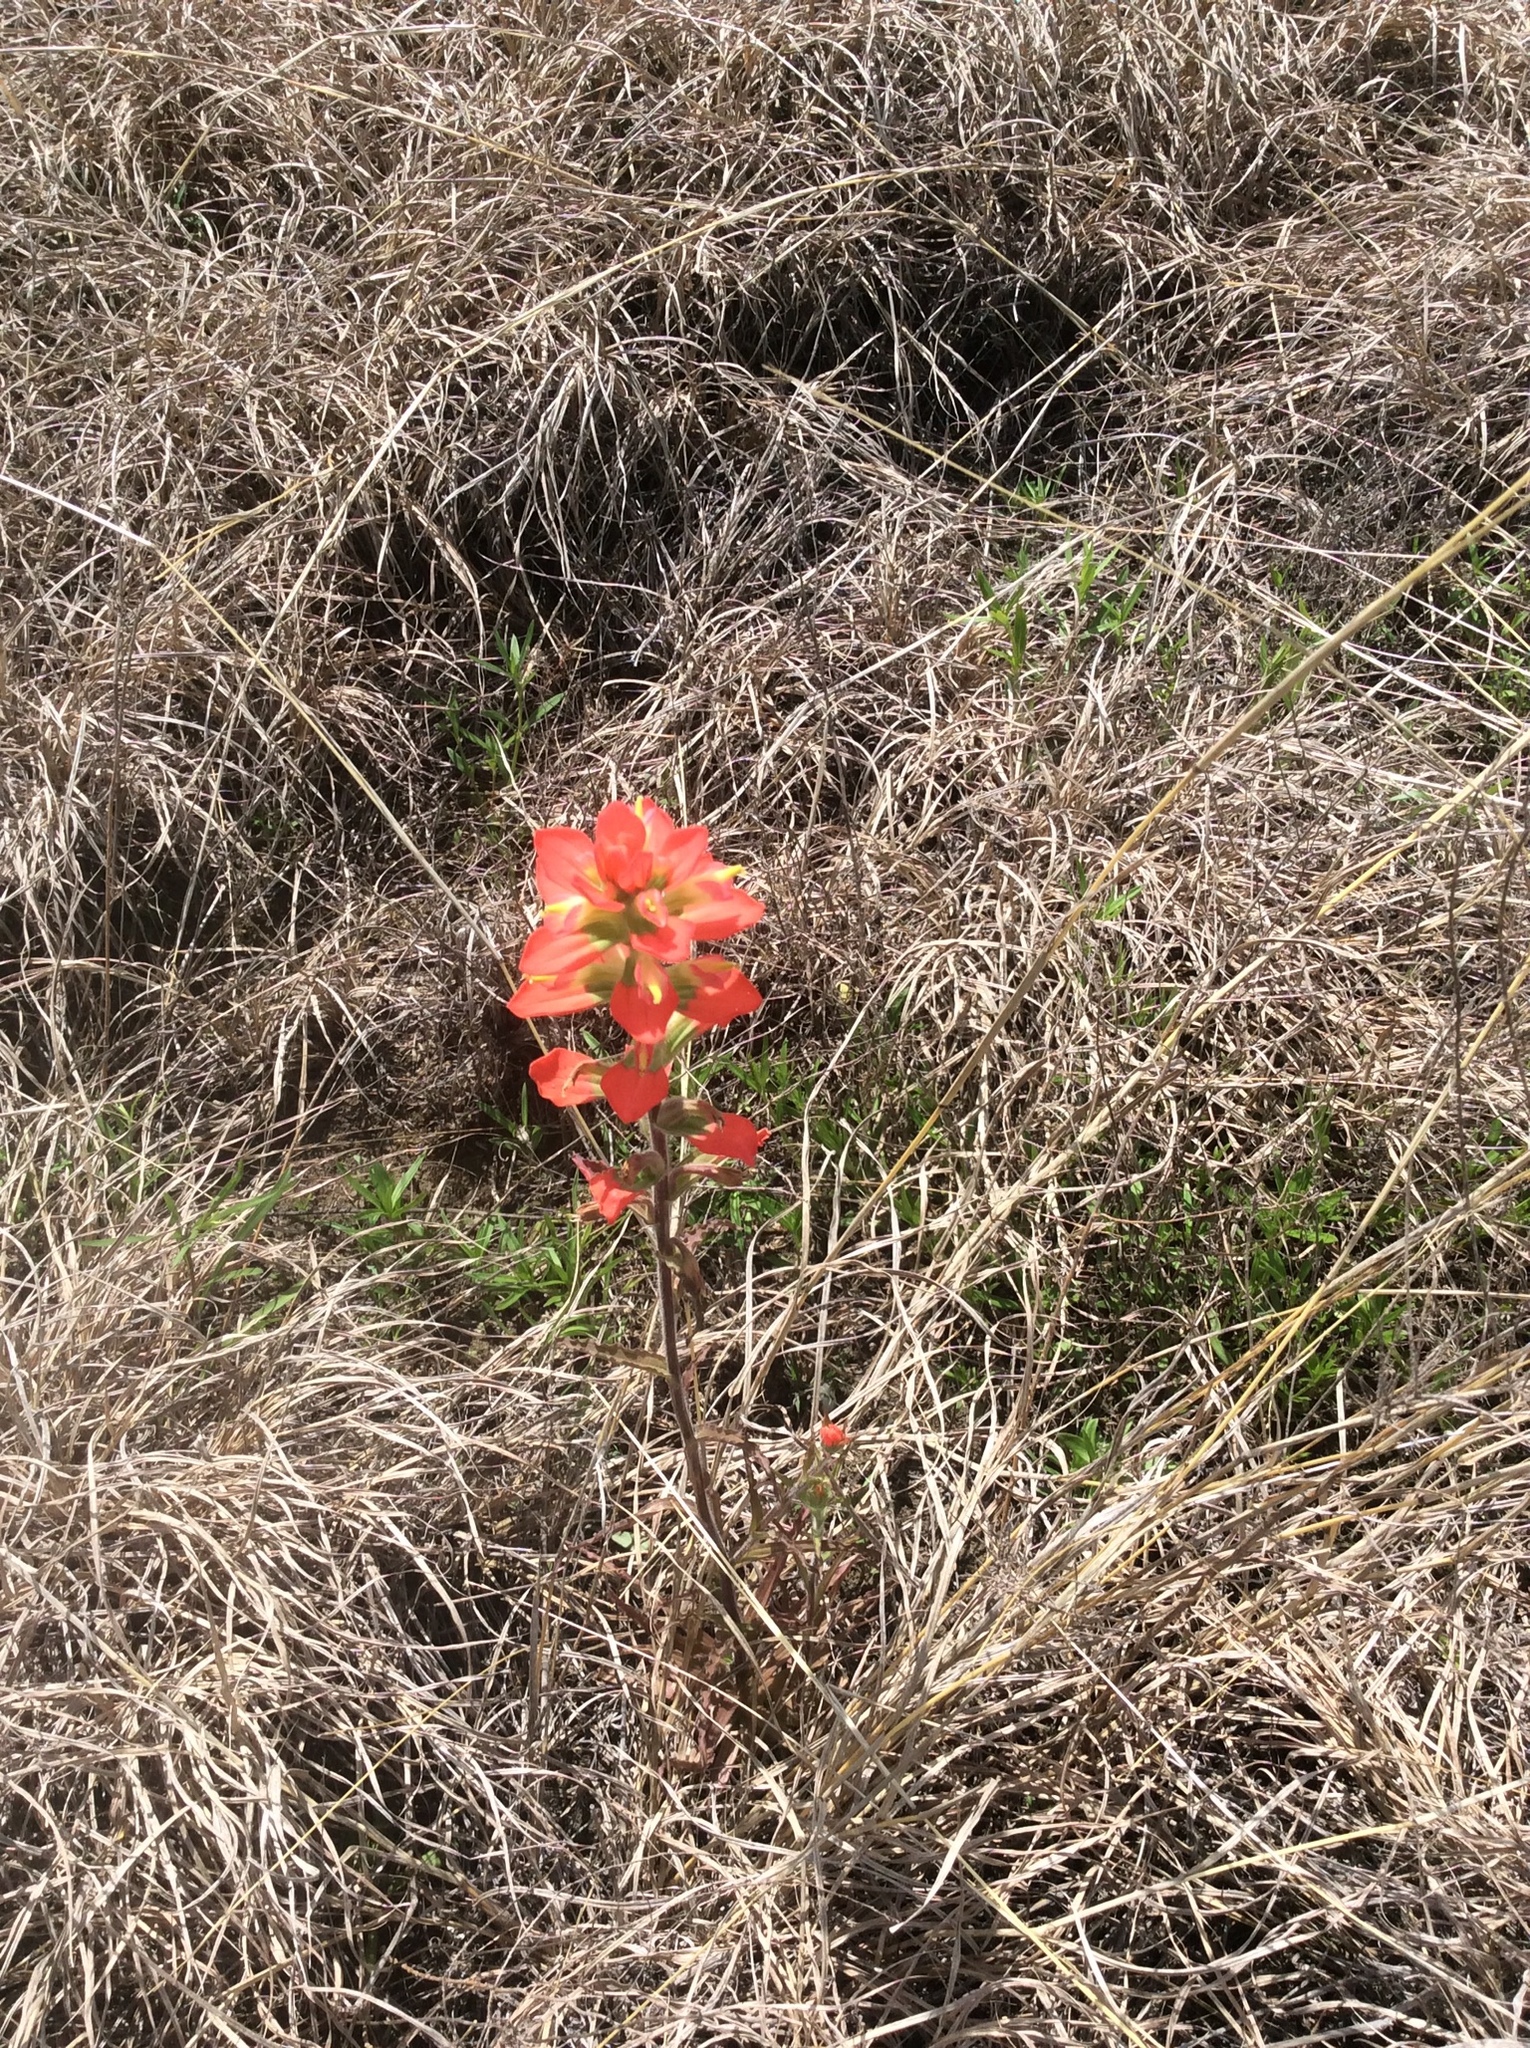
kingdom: Plantae
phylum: Tracheophyta
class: Magnoliopsida
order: Lamiales
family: Orobanchaceae
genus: Castilleja
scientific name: Castilleja indivisa
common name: Texas paintbrush
